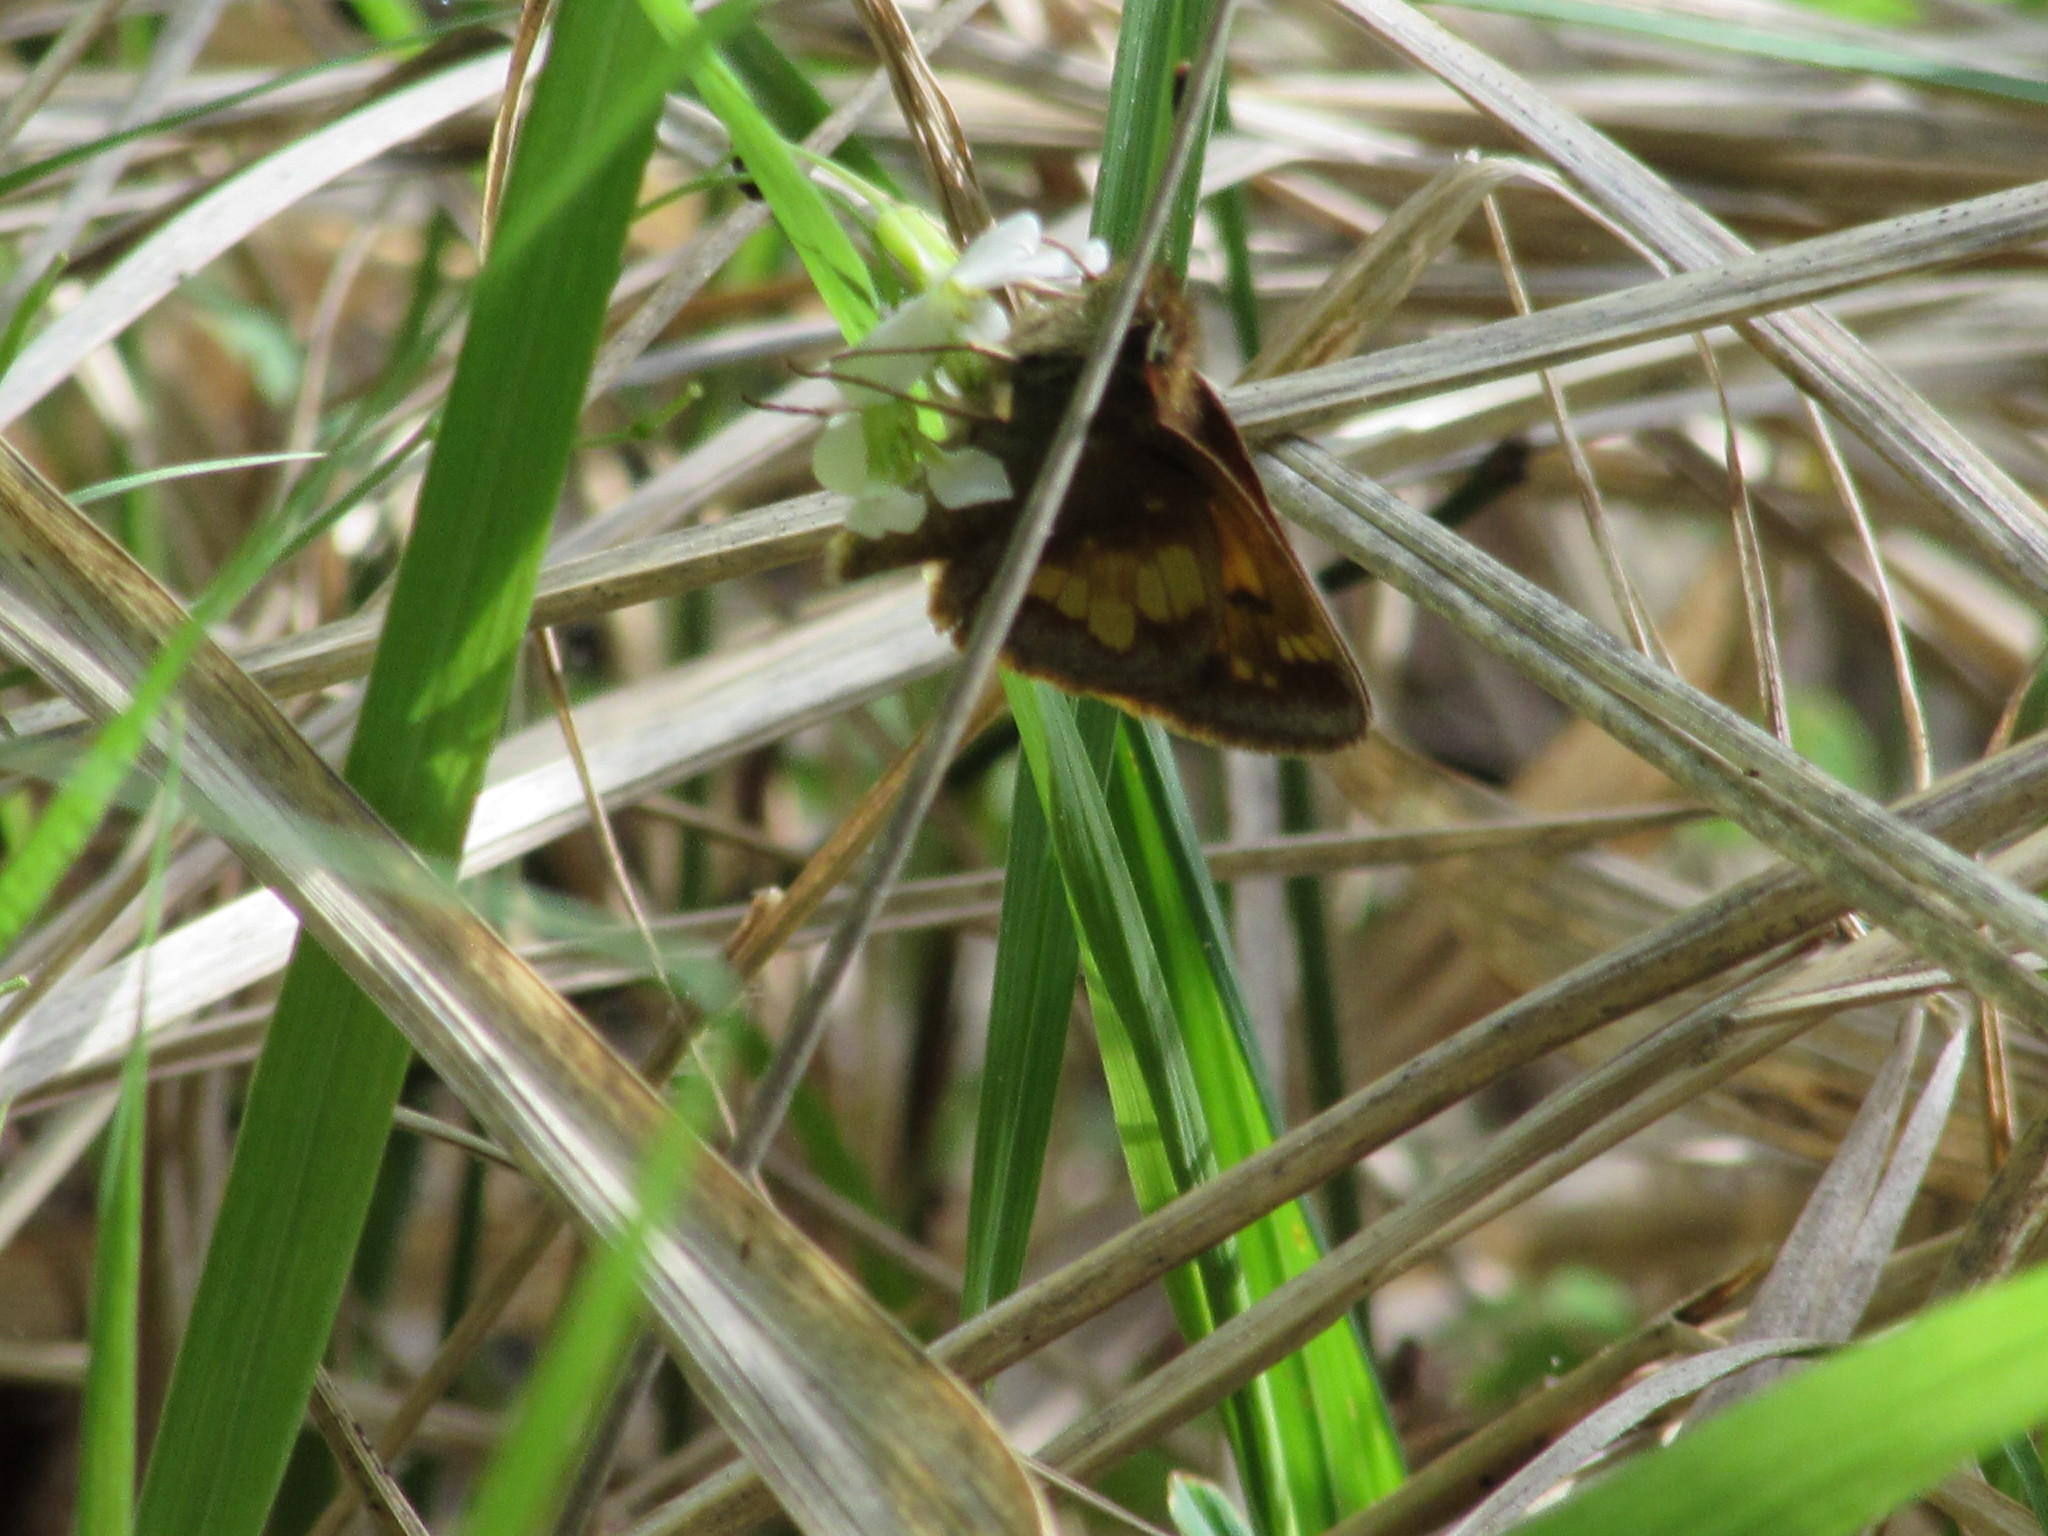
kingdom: Animalia
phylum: Arthropoda
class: Insecta
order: Lepidoptera
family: Hesperiidae
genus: Lon
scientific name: Lon hobomok
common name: Hobomok skipper
